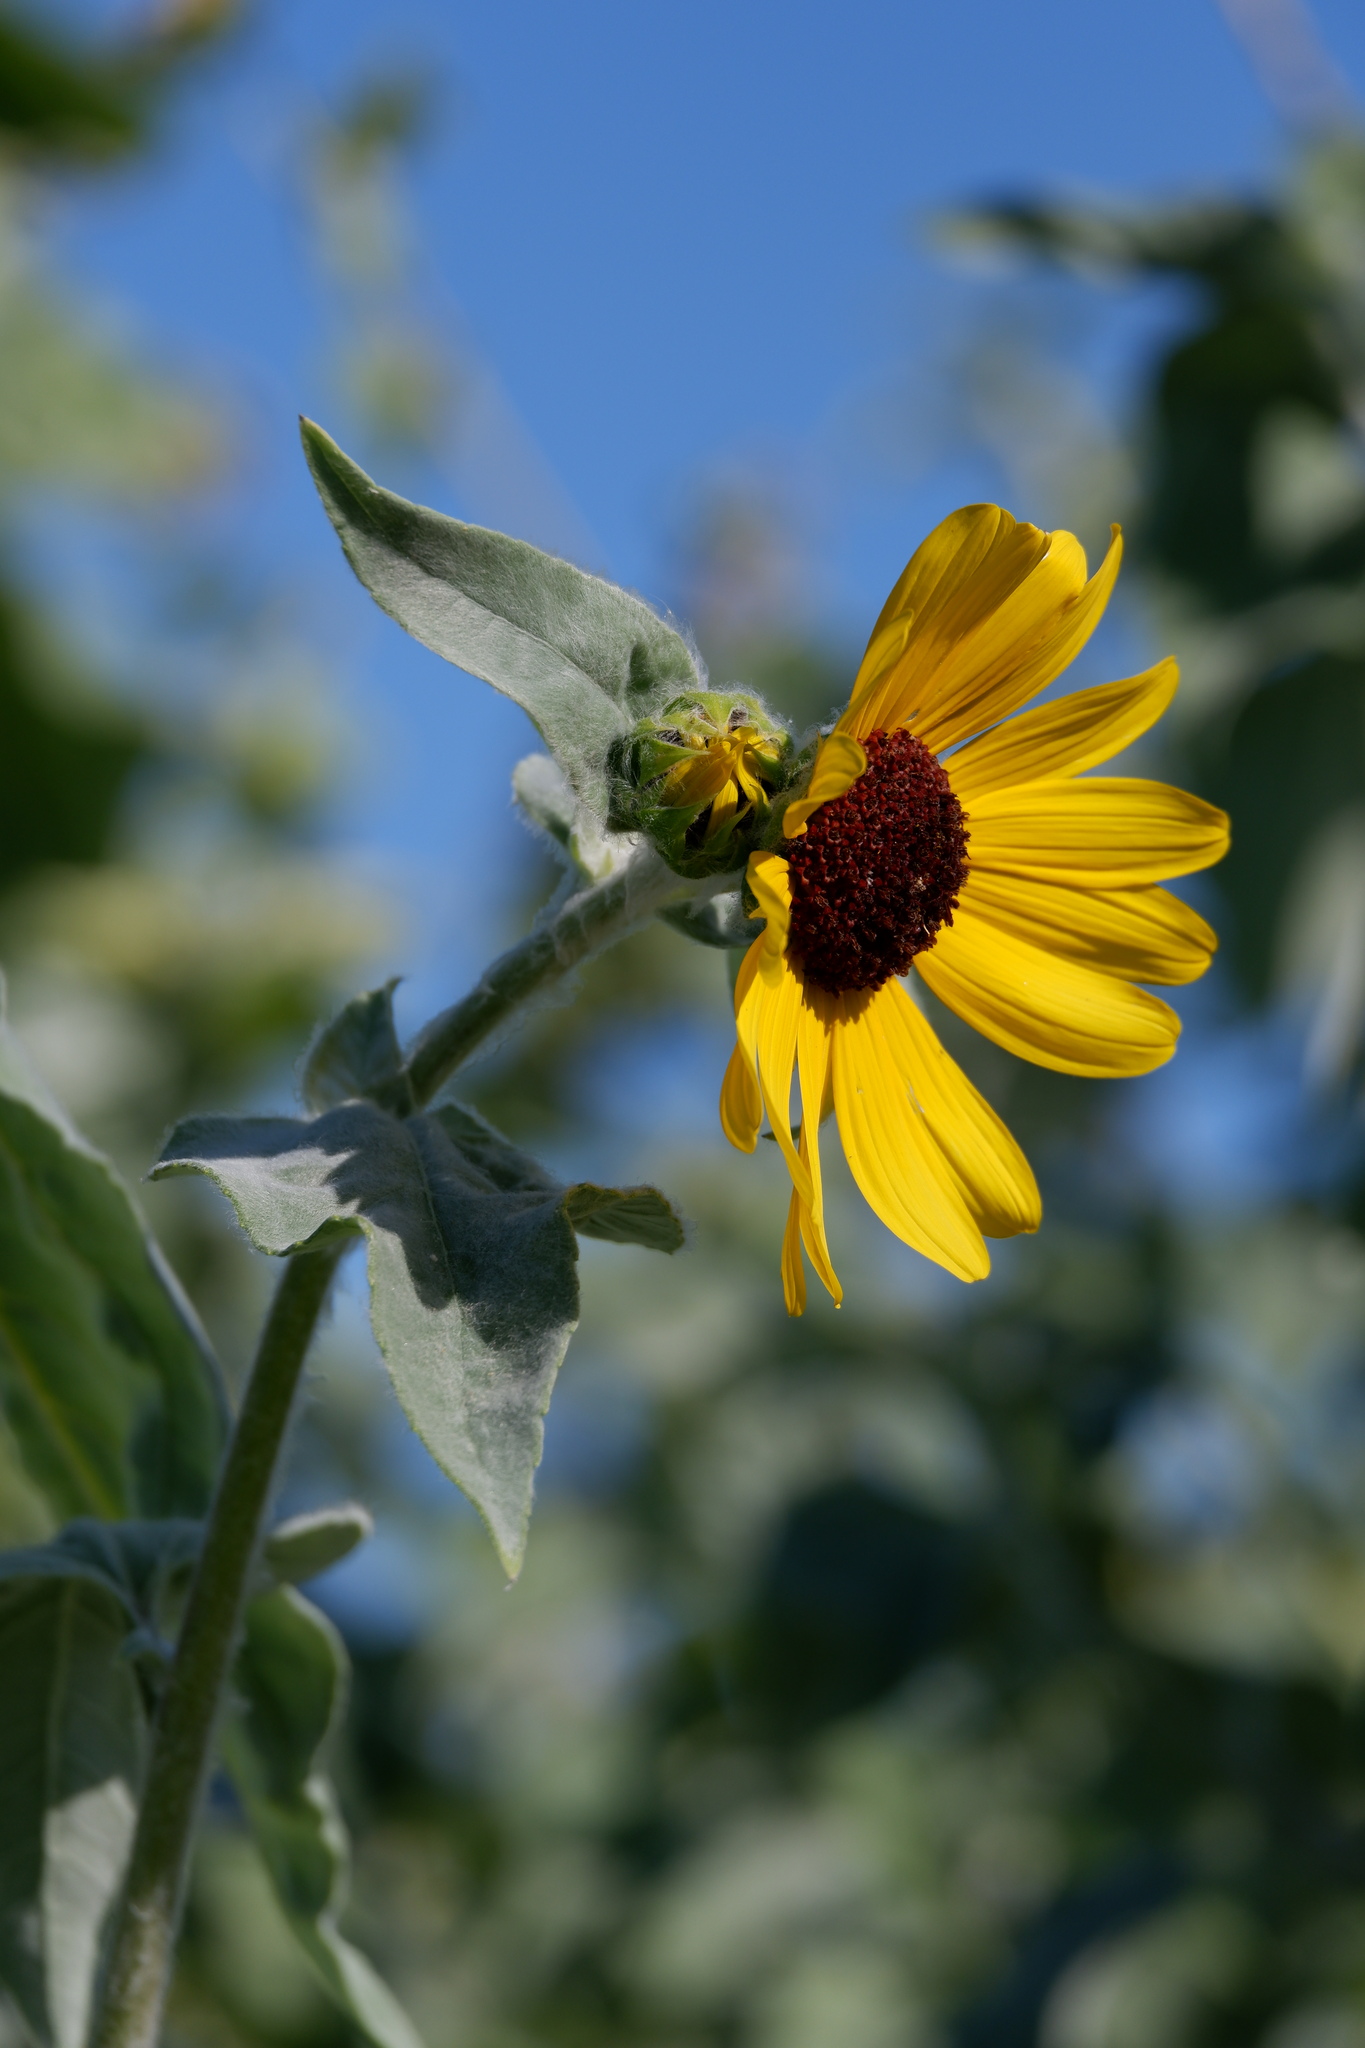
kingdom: Plantae
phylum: Tracheophyta
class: Magnoliopsida
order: Asterales
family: Asteraceae
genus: Helianthus
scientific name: Helianthus argophyllus
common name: Silverleaf sunflower
